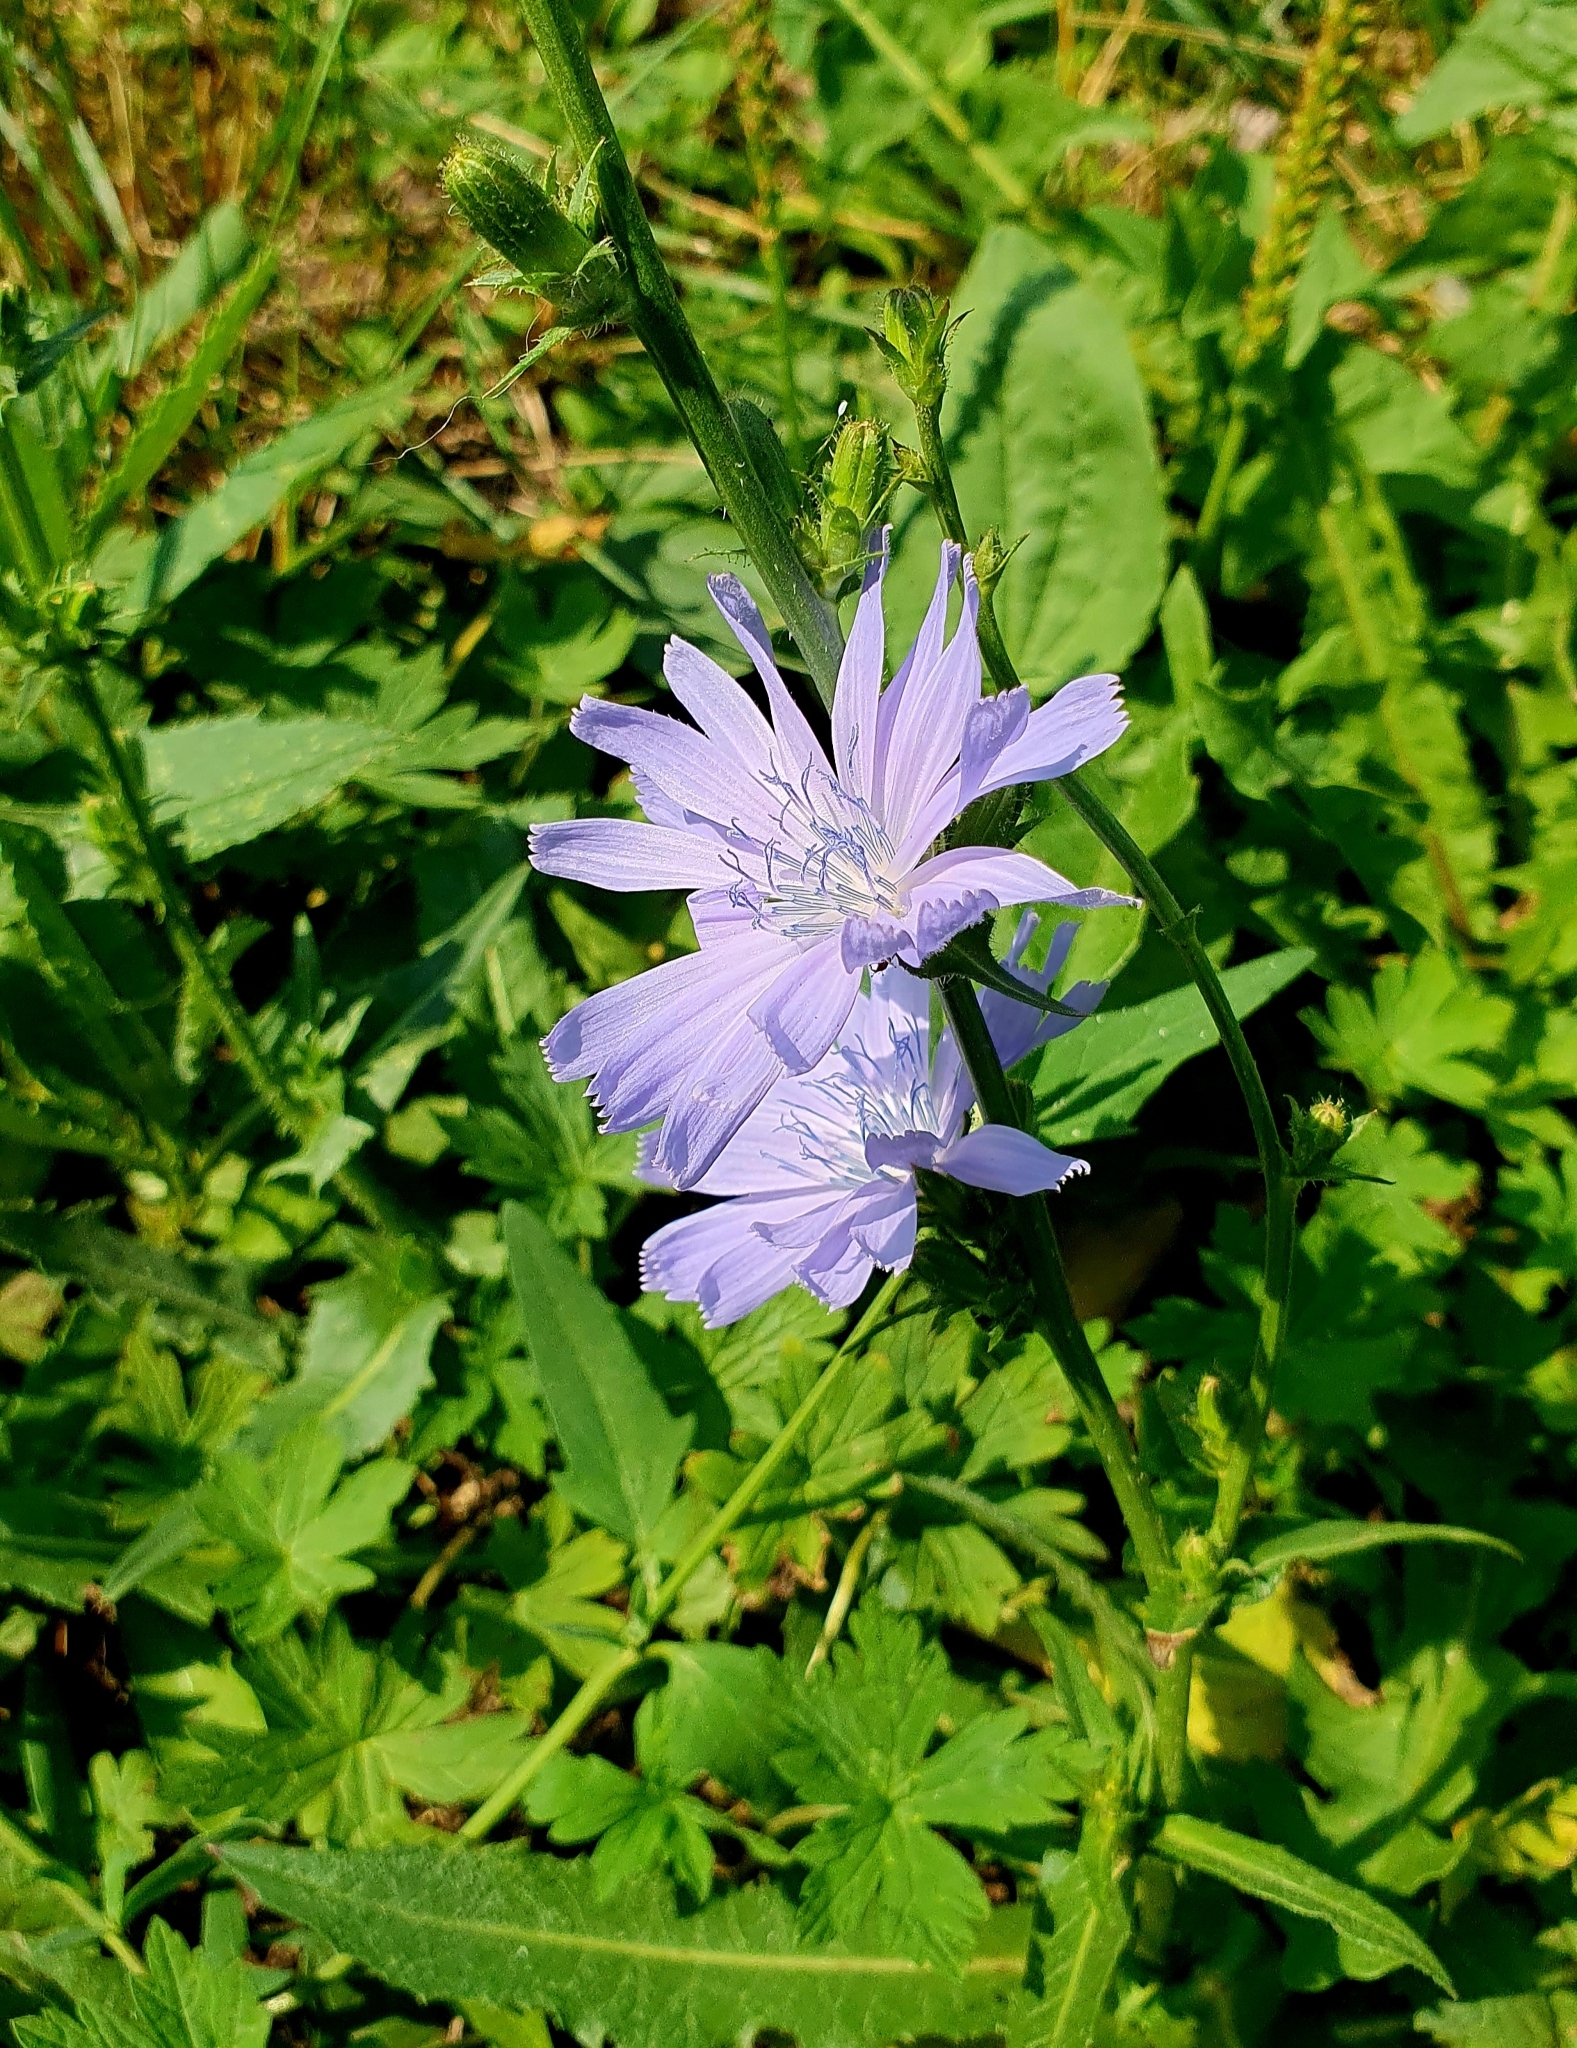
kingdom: Plantae
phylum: Tracheophyta
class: Magnoliopsida
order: Asterales
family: Asteraceae
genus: Cichorium
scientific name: Cichorium intybus
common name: Chicory
